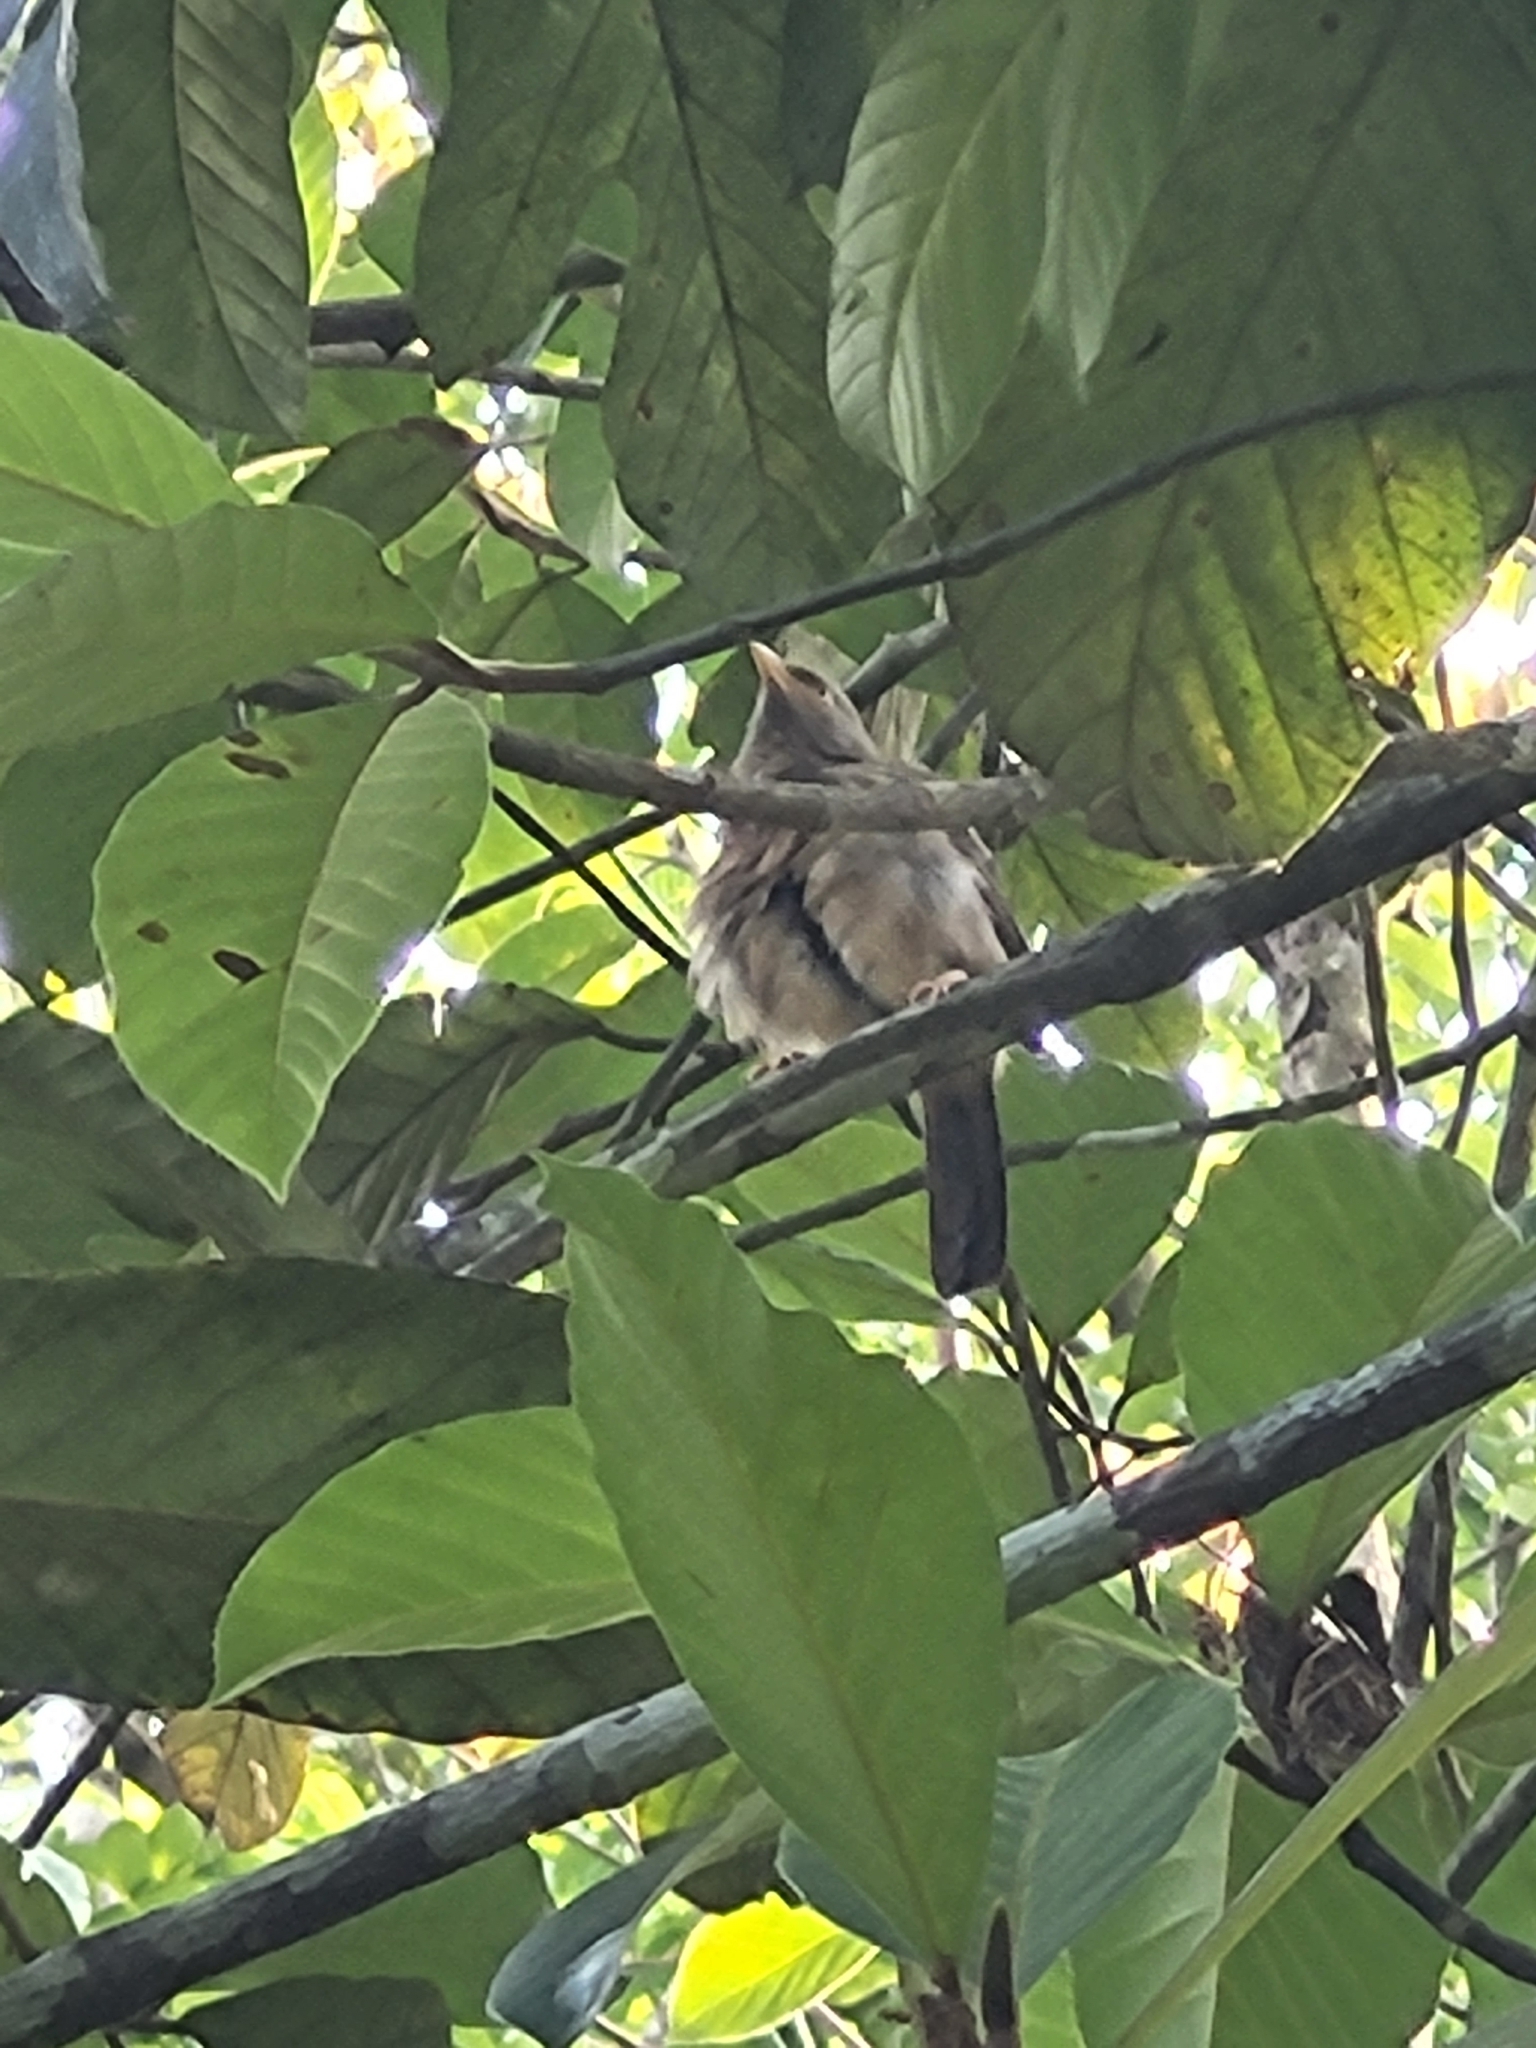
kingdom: Animalia
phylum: Chordata
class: Aves
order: Passeriformes
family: Leiothrichidae
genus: Turdoides
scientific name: Turdoides striata
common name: Jungle babbler
